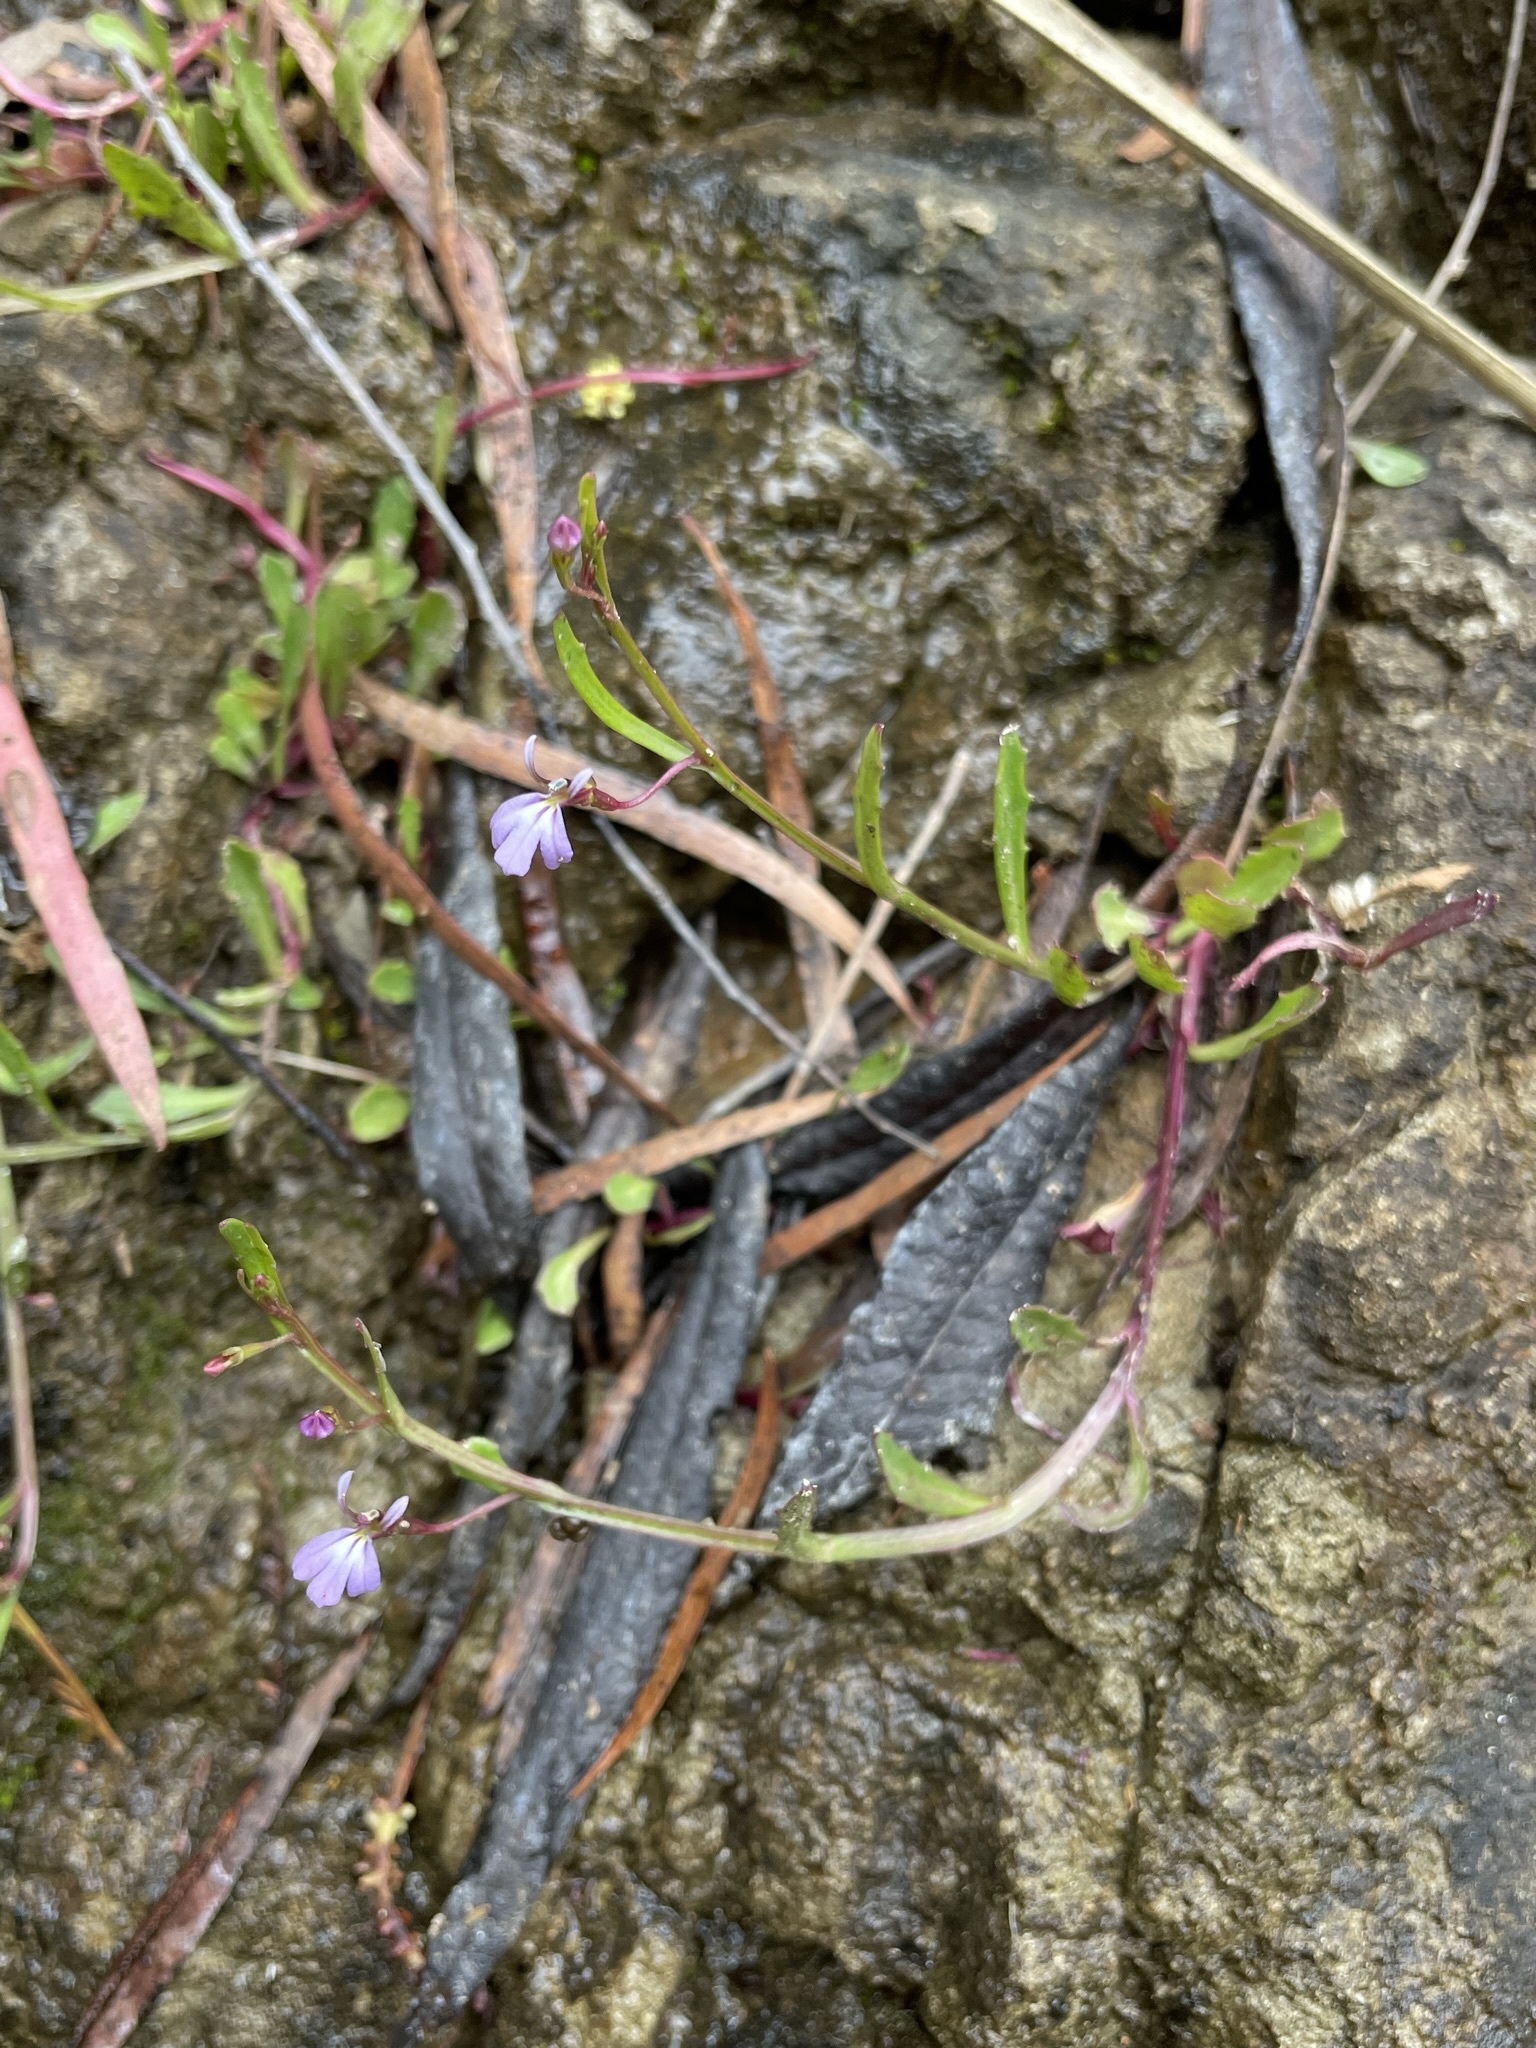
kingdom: Plantae
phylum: Tracheophyta
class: Magnoliopsida
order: Asterales
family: Campanulaceae
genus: Lobelia
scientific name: Lobelia anceps
